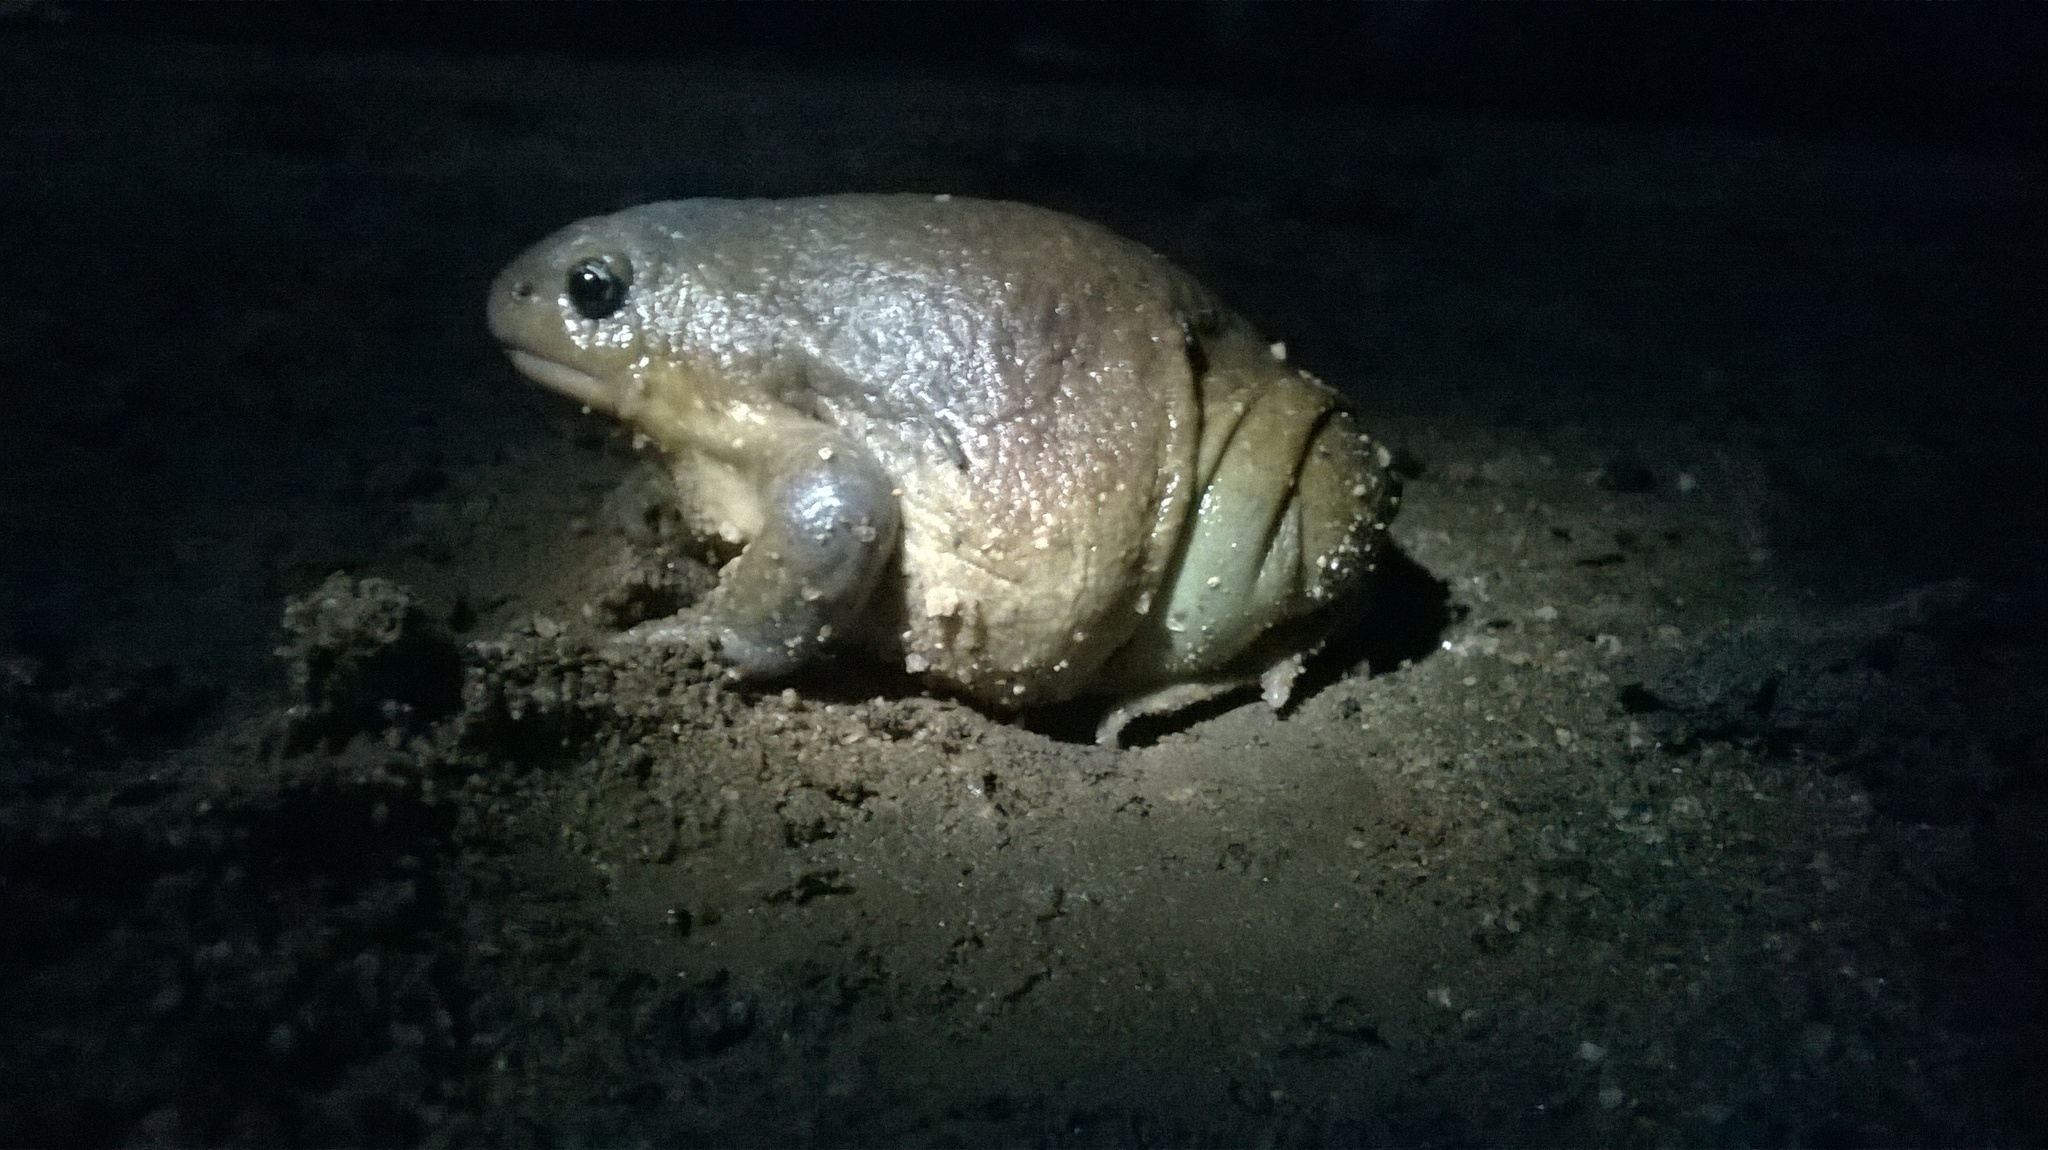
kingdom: Animalia
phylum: Chordata
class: Amphibia
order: Anura
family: Microhylidae
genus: Uperodon
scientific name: Uperodon globulosus
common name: Indian globular frog
